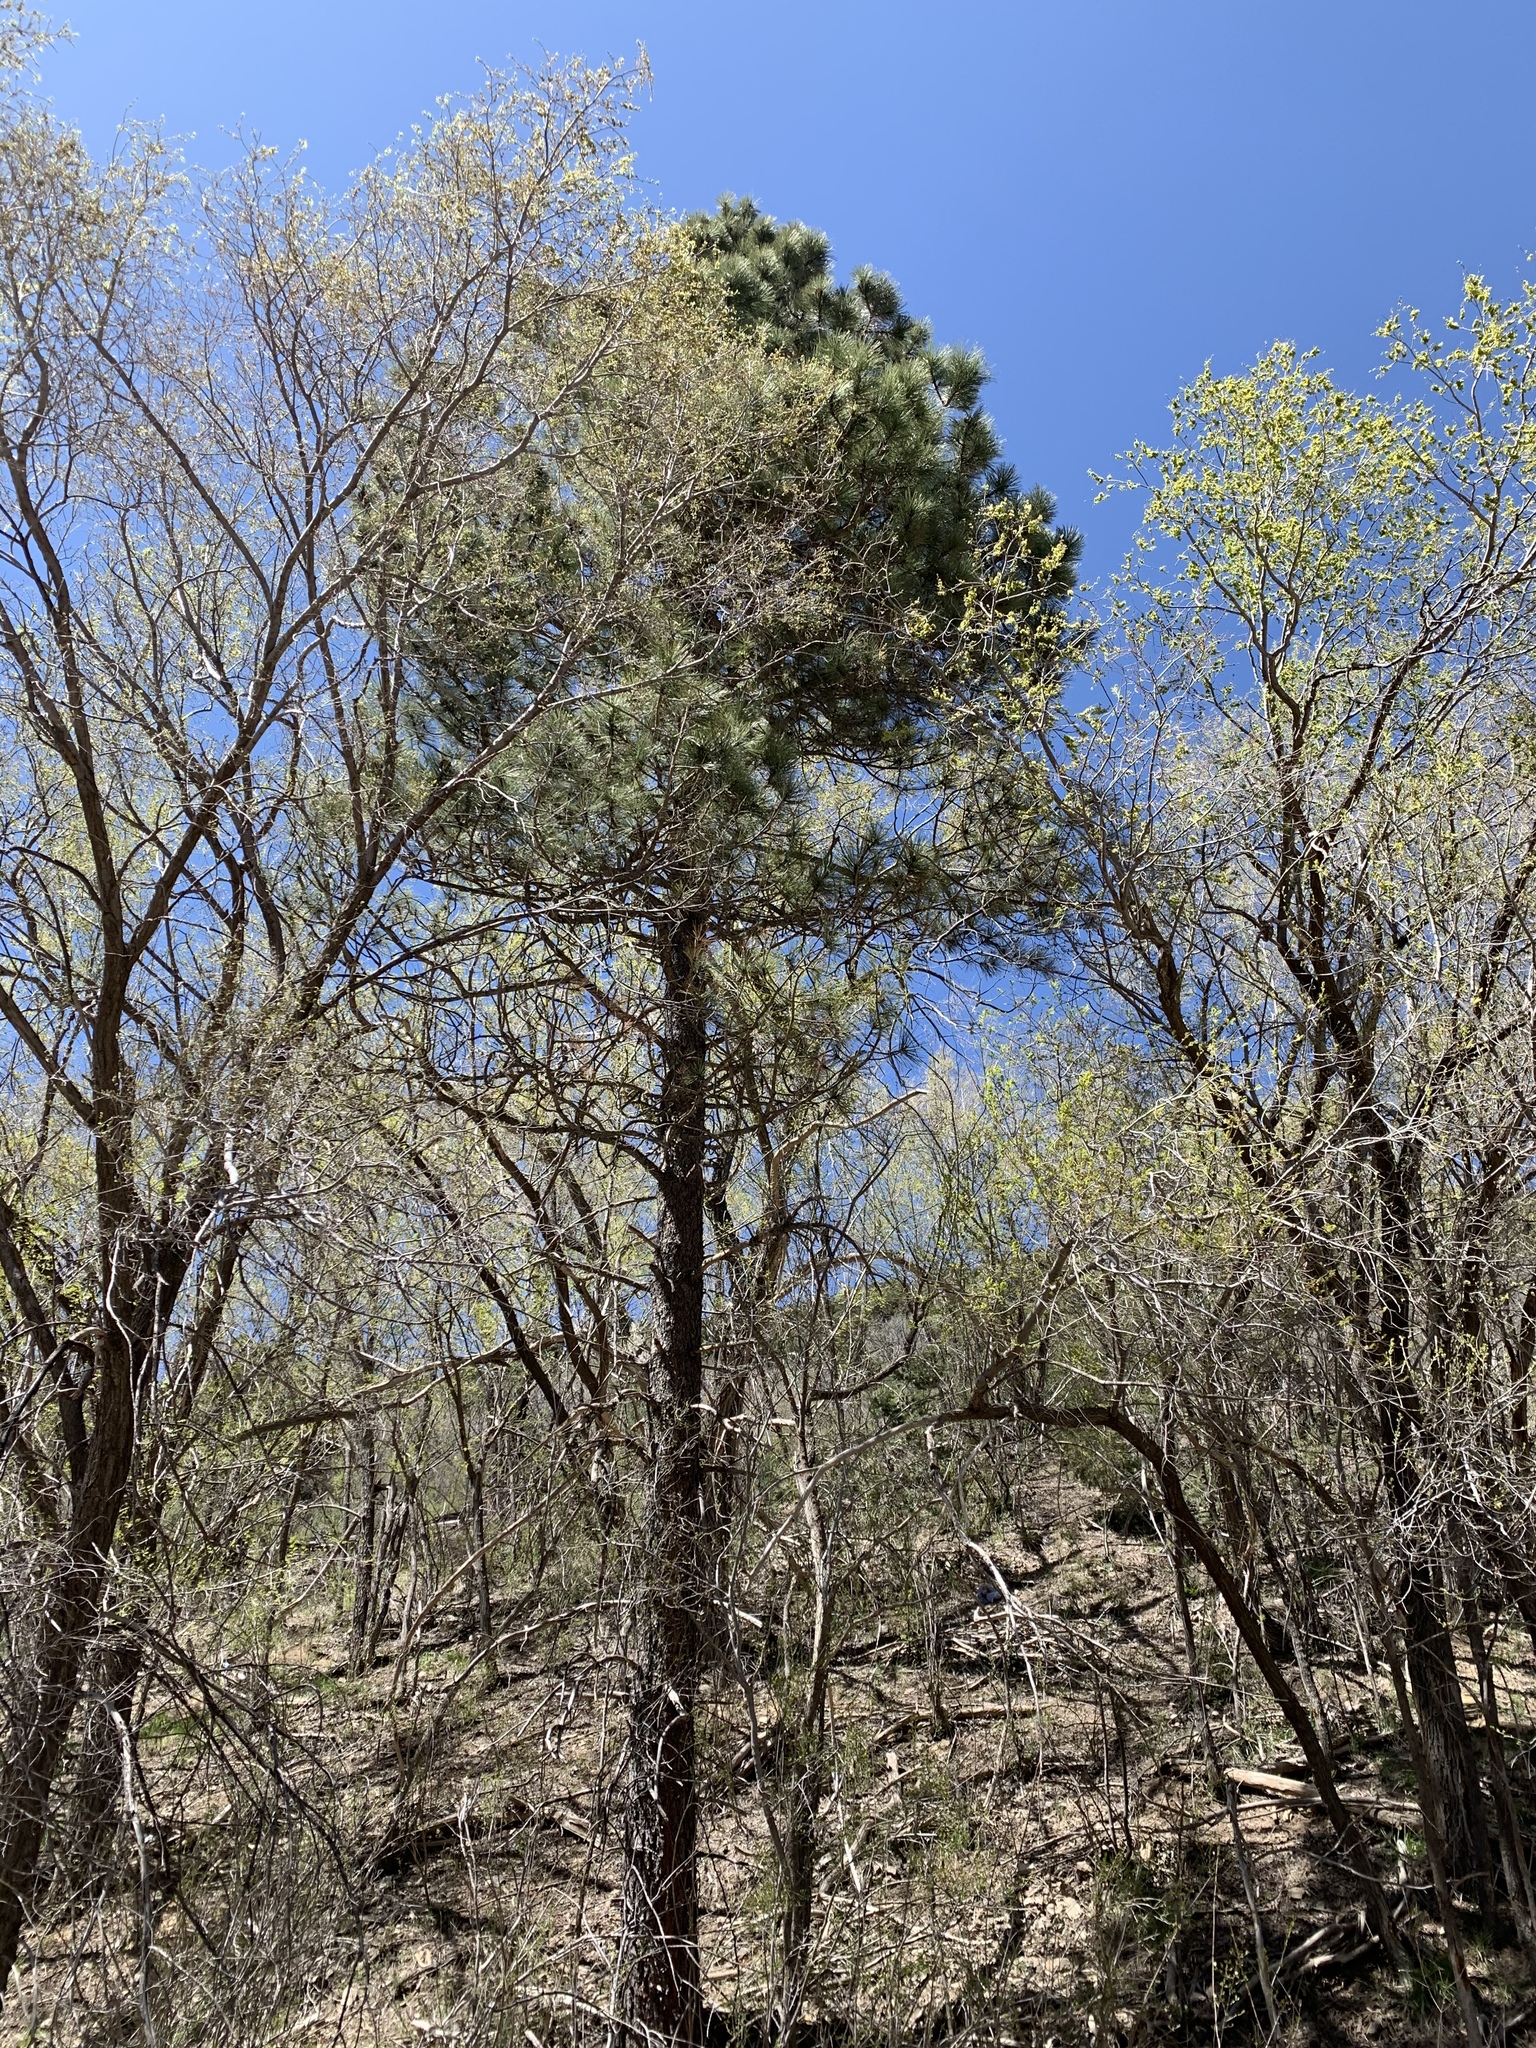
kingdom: Plantae
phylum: Tracheophyta
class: Pinopsida
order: Pinales
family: Pinaceae
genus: Pinus
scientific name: Pinus ponderosa
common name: Western yellow-pine
